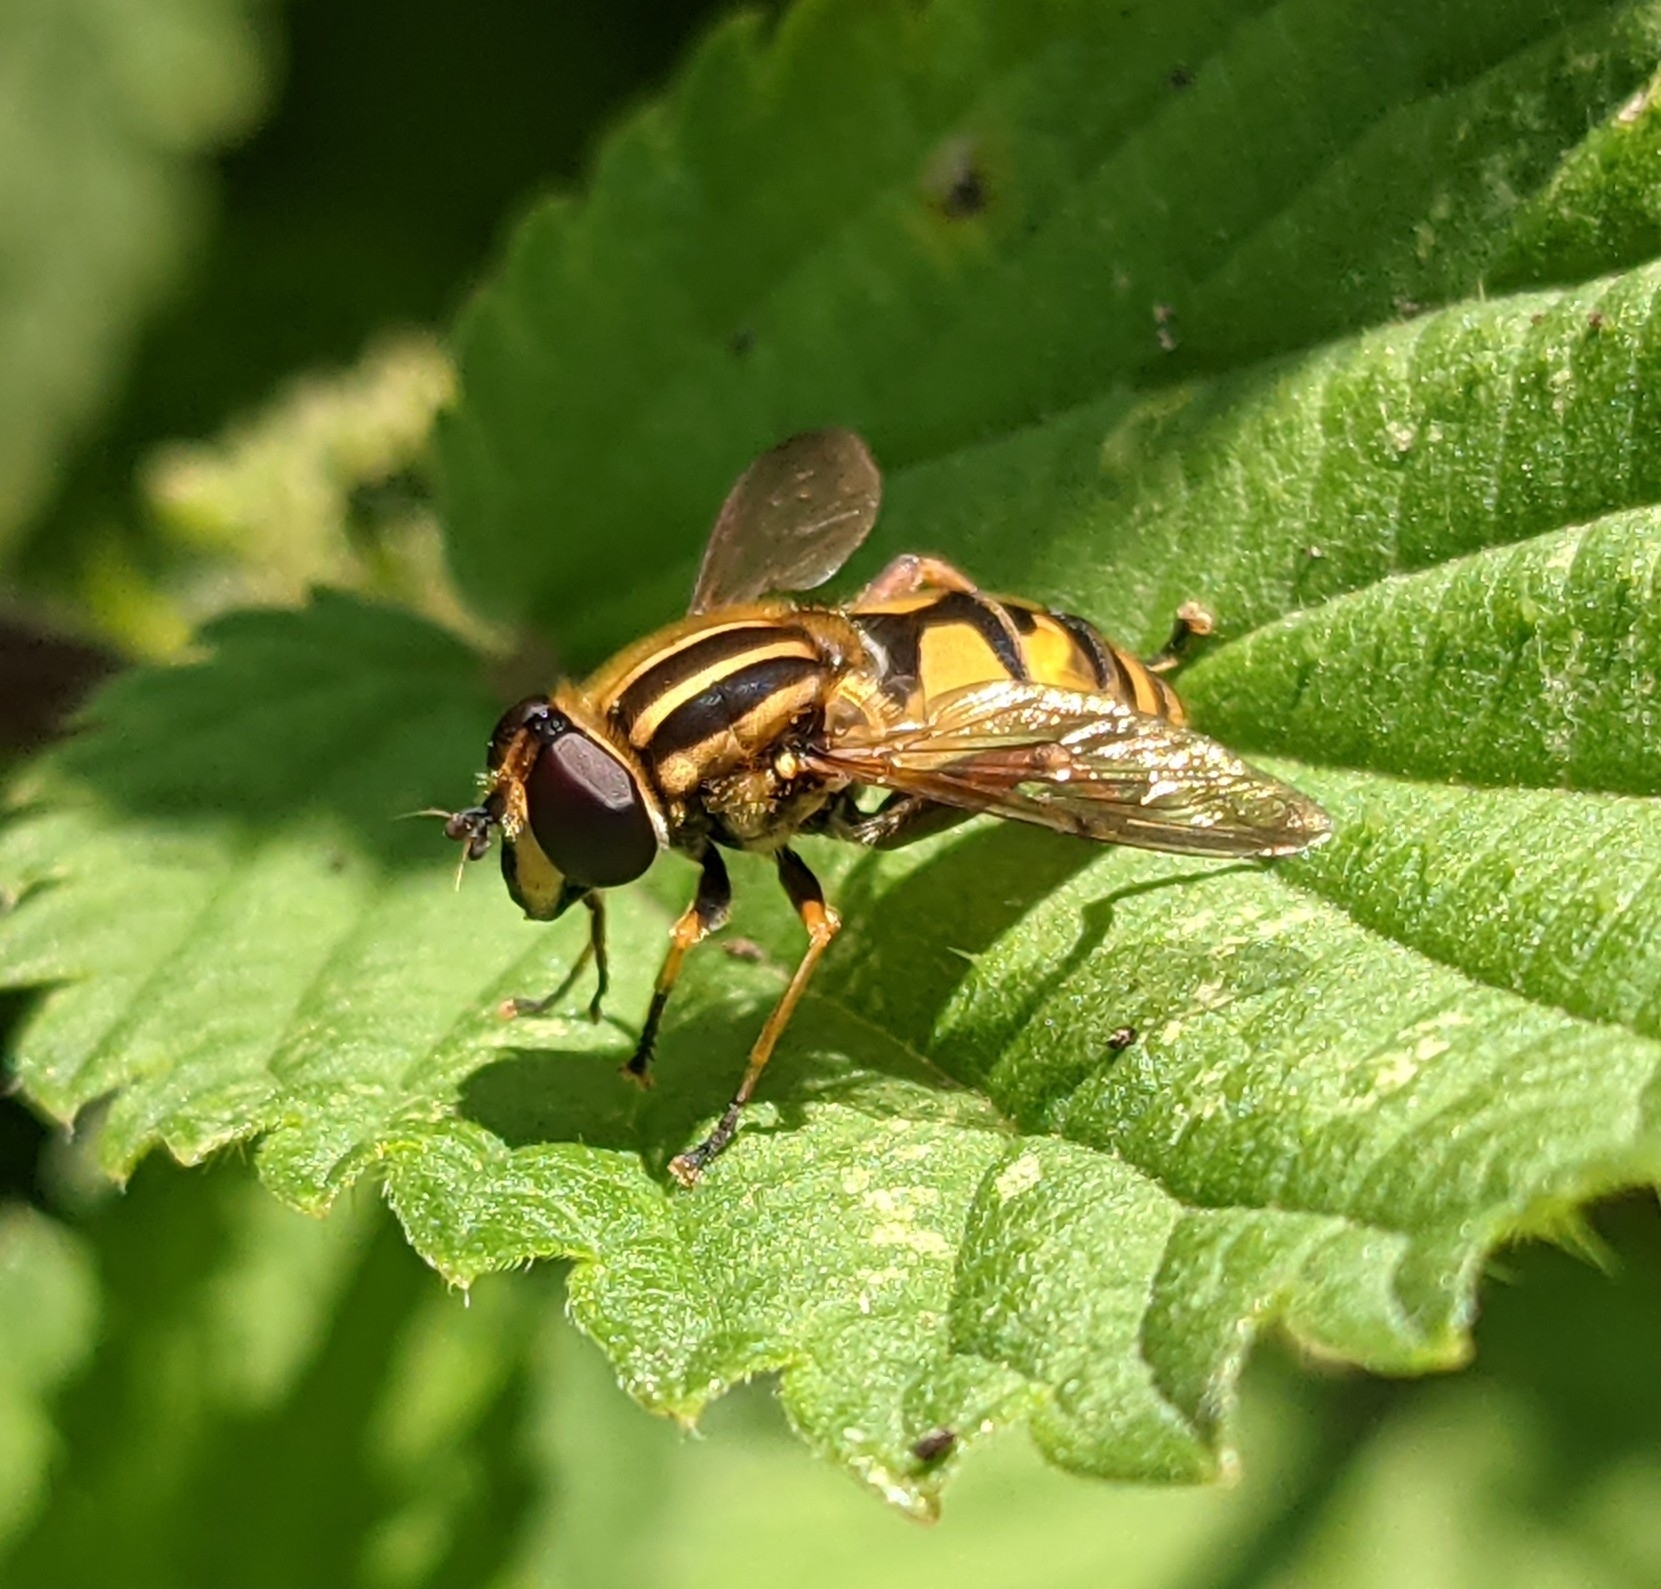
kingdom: Animalia
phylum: Arthropoda
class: Insecta
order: Diptera
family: Syrphidae
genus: Helophilus
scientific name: Helophilus pendulus
